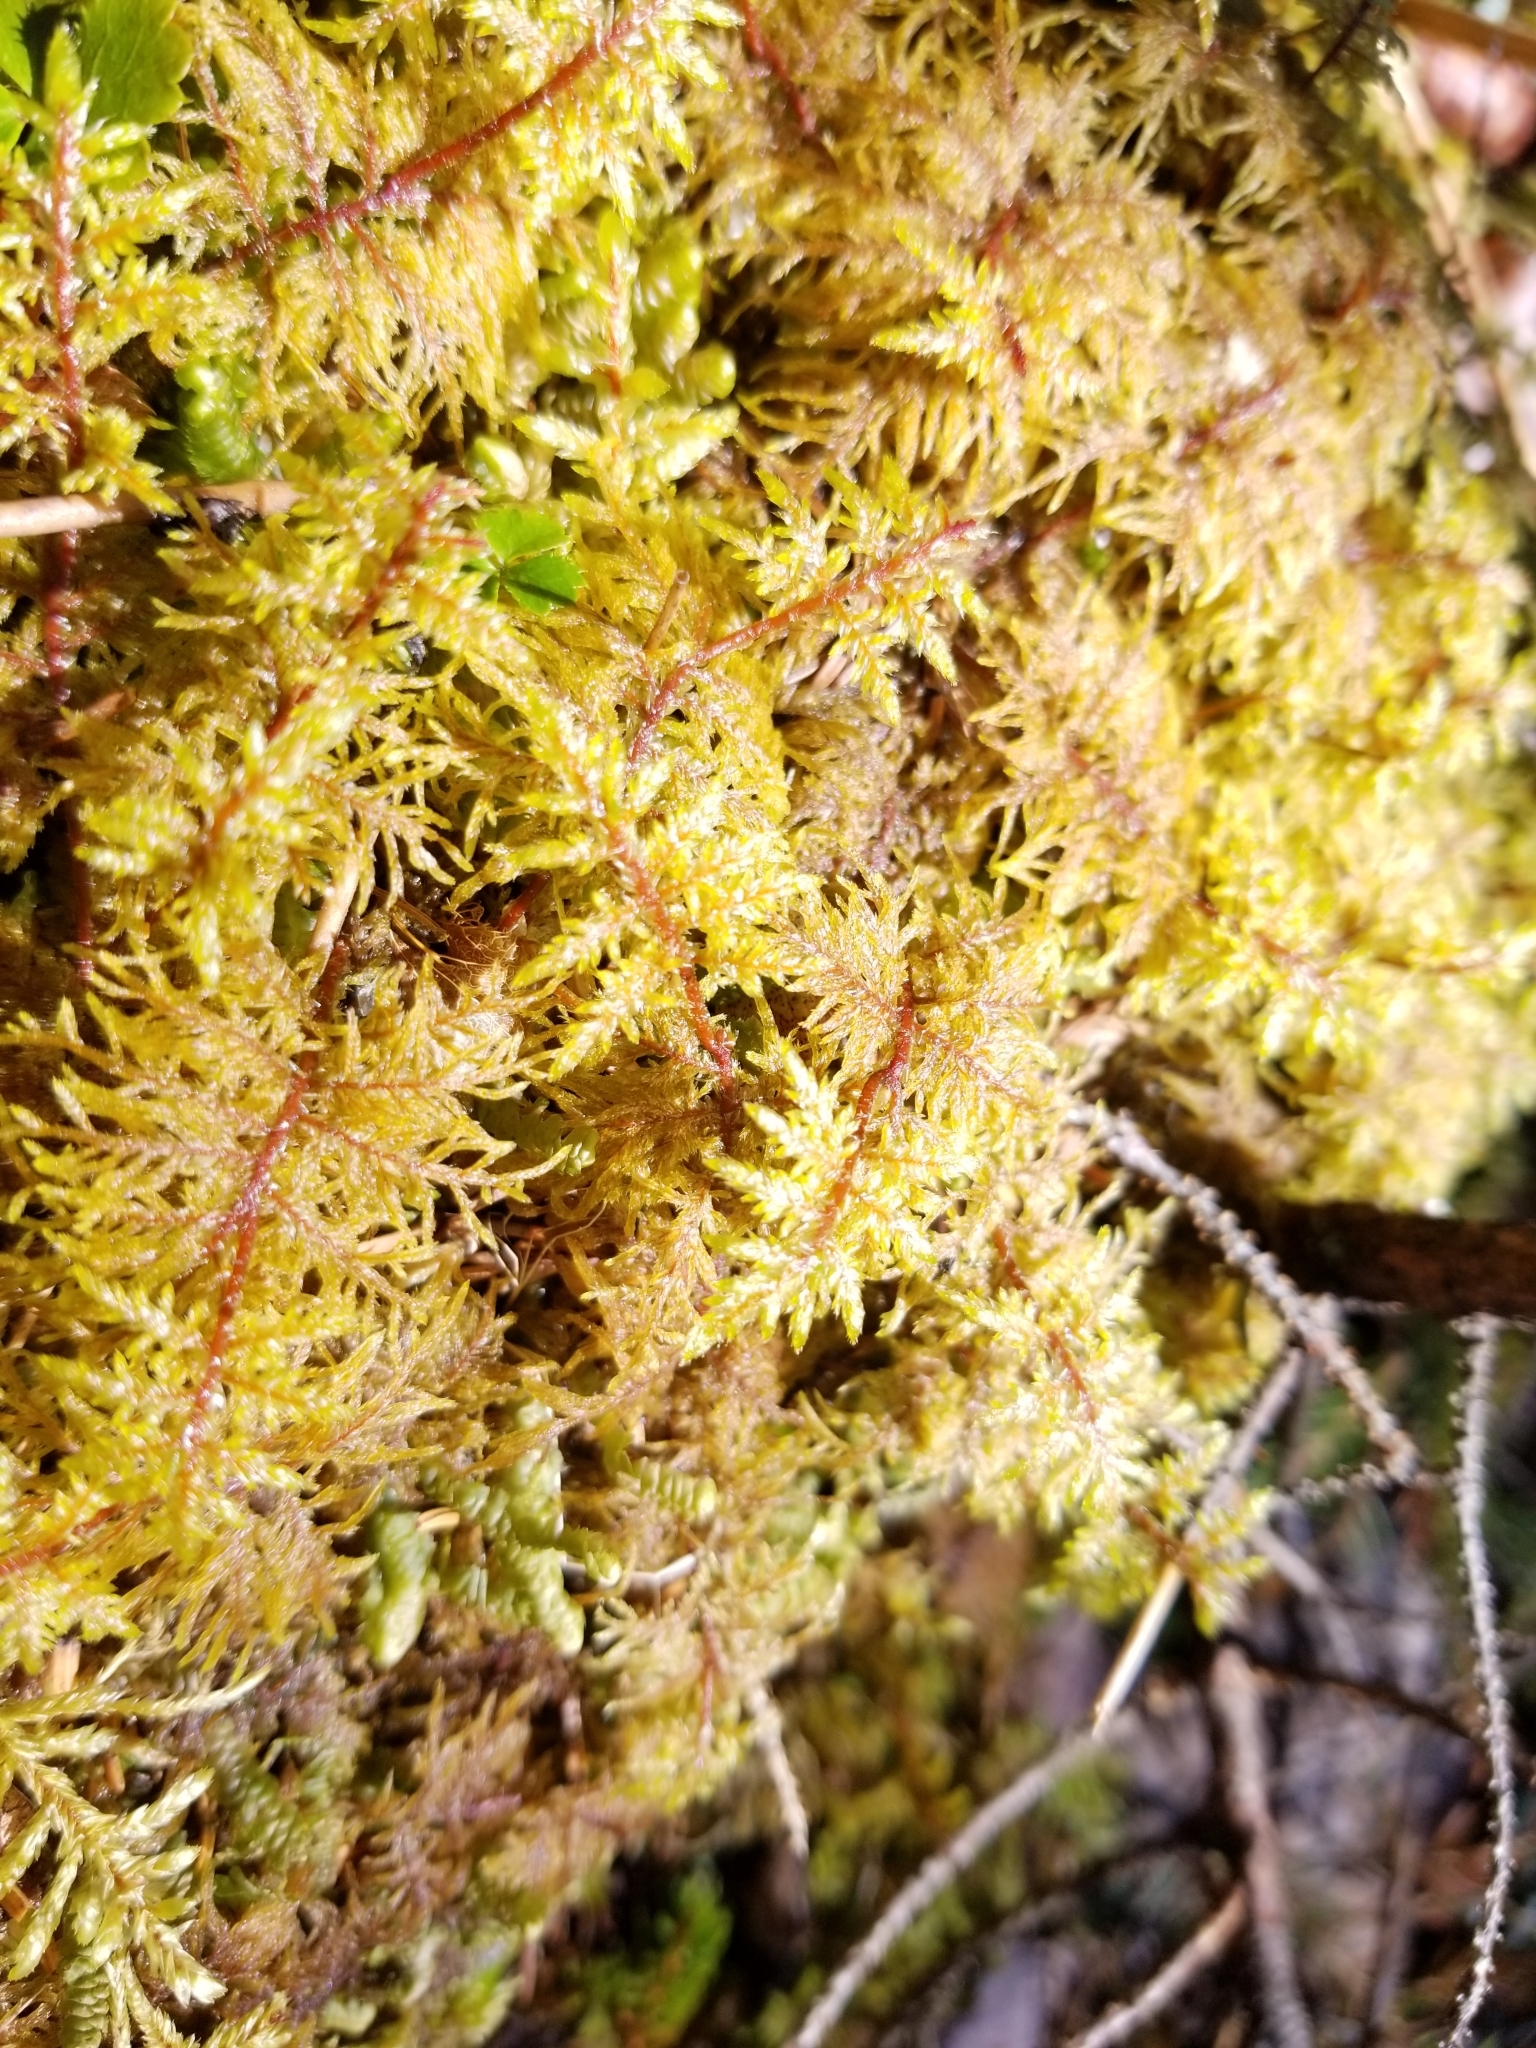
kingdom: Plantae
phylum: Bryophyta
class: Bryopsida
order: Hypnales
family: Hylocomiaceae
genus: Hylocomium
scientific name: Hylocomium splendens
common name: Stairstep moss
